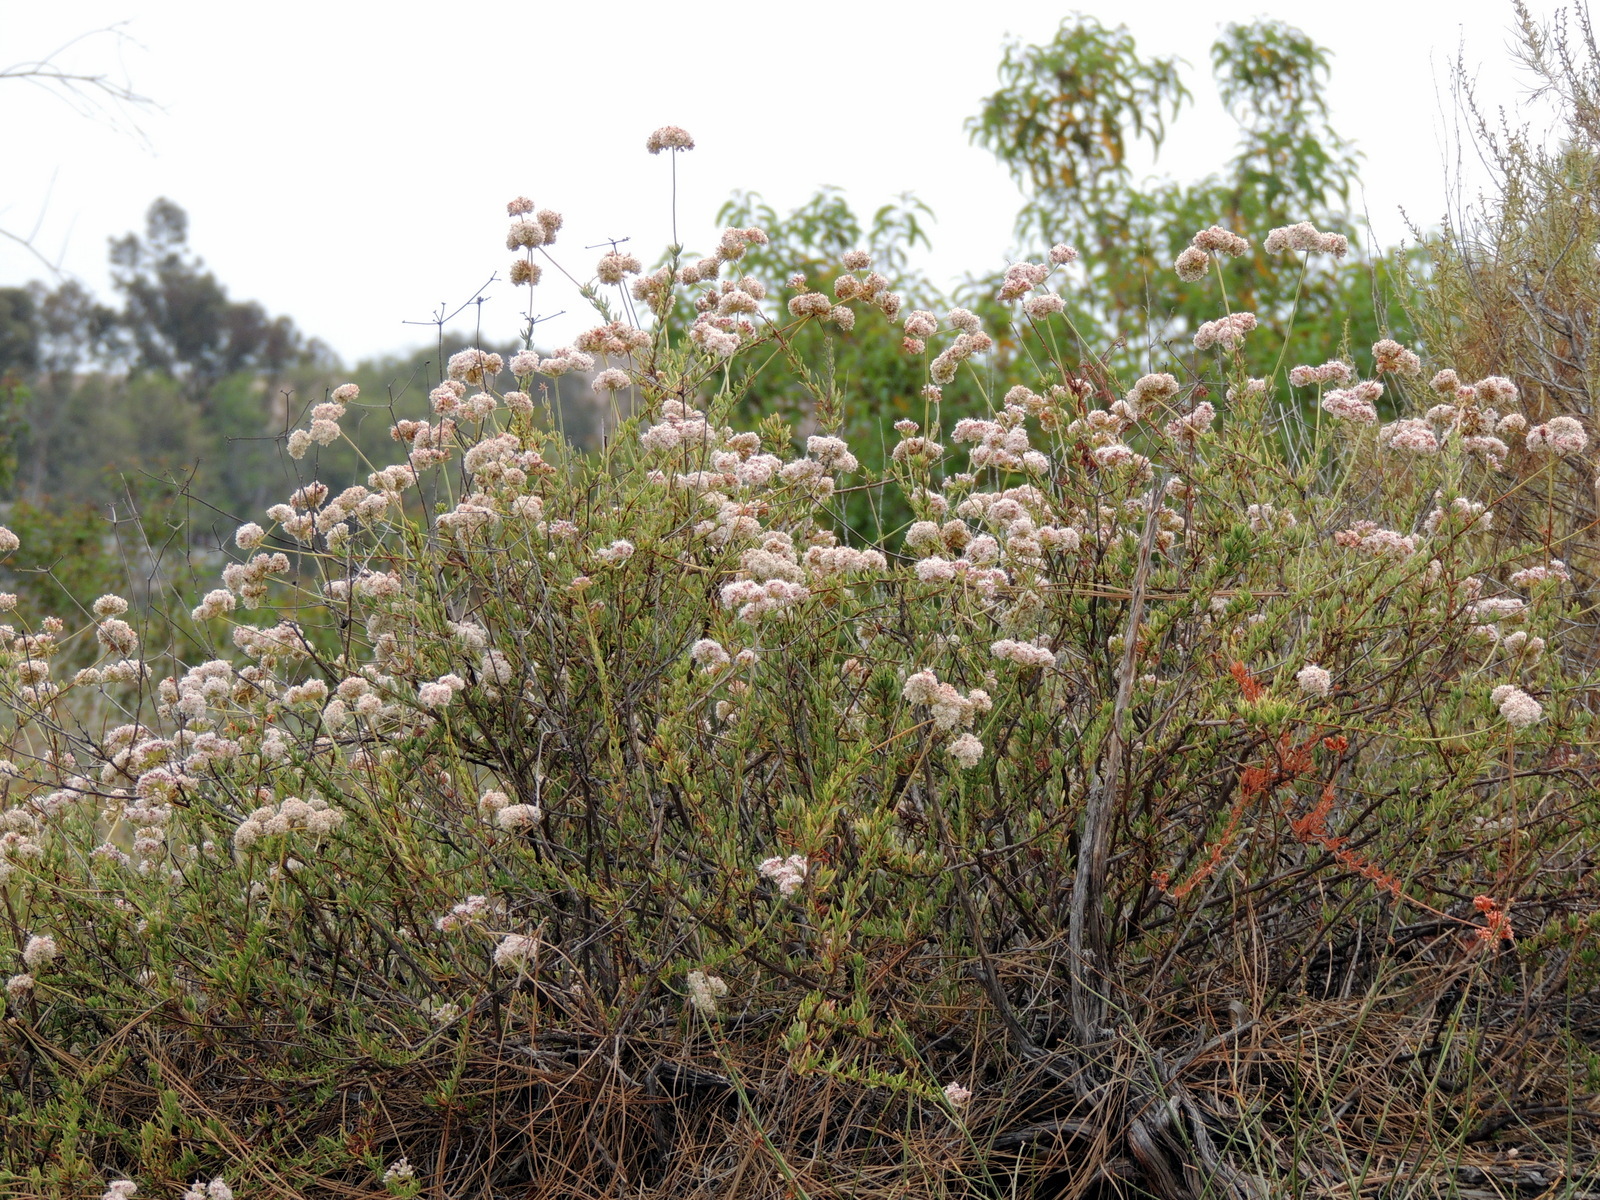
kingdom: Plantae
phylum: Tracheophyta
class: Magnoliopsida
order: Caryophyllales
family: Polygonaceae
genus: Eriogonum
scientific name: Eriogonum fasciculatum
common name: California wild buckwheat
